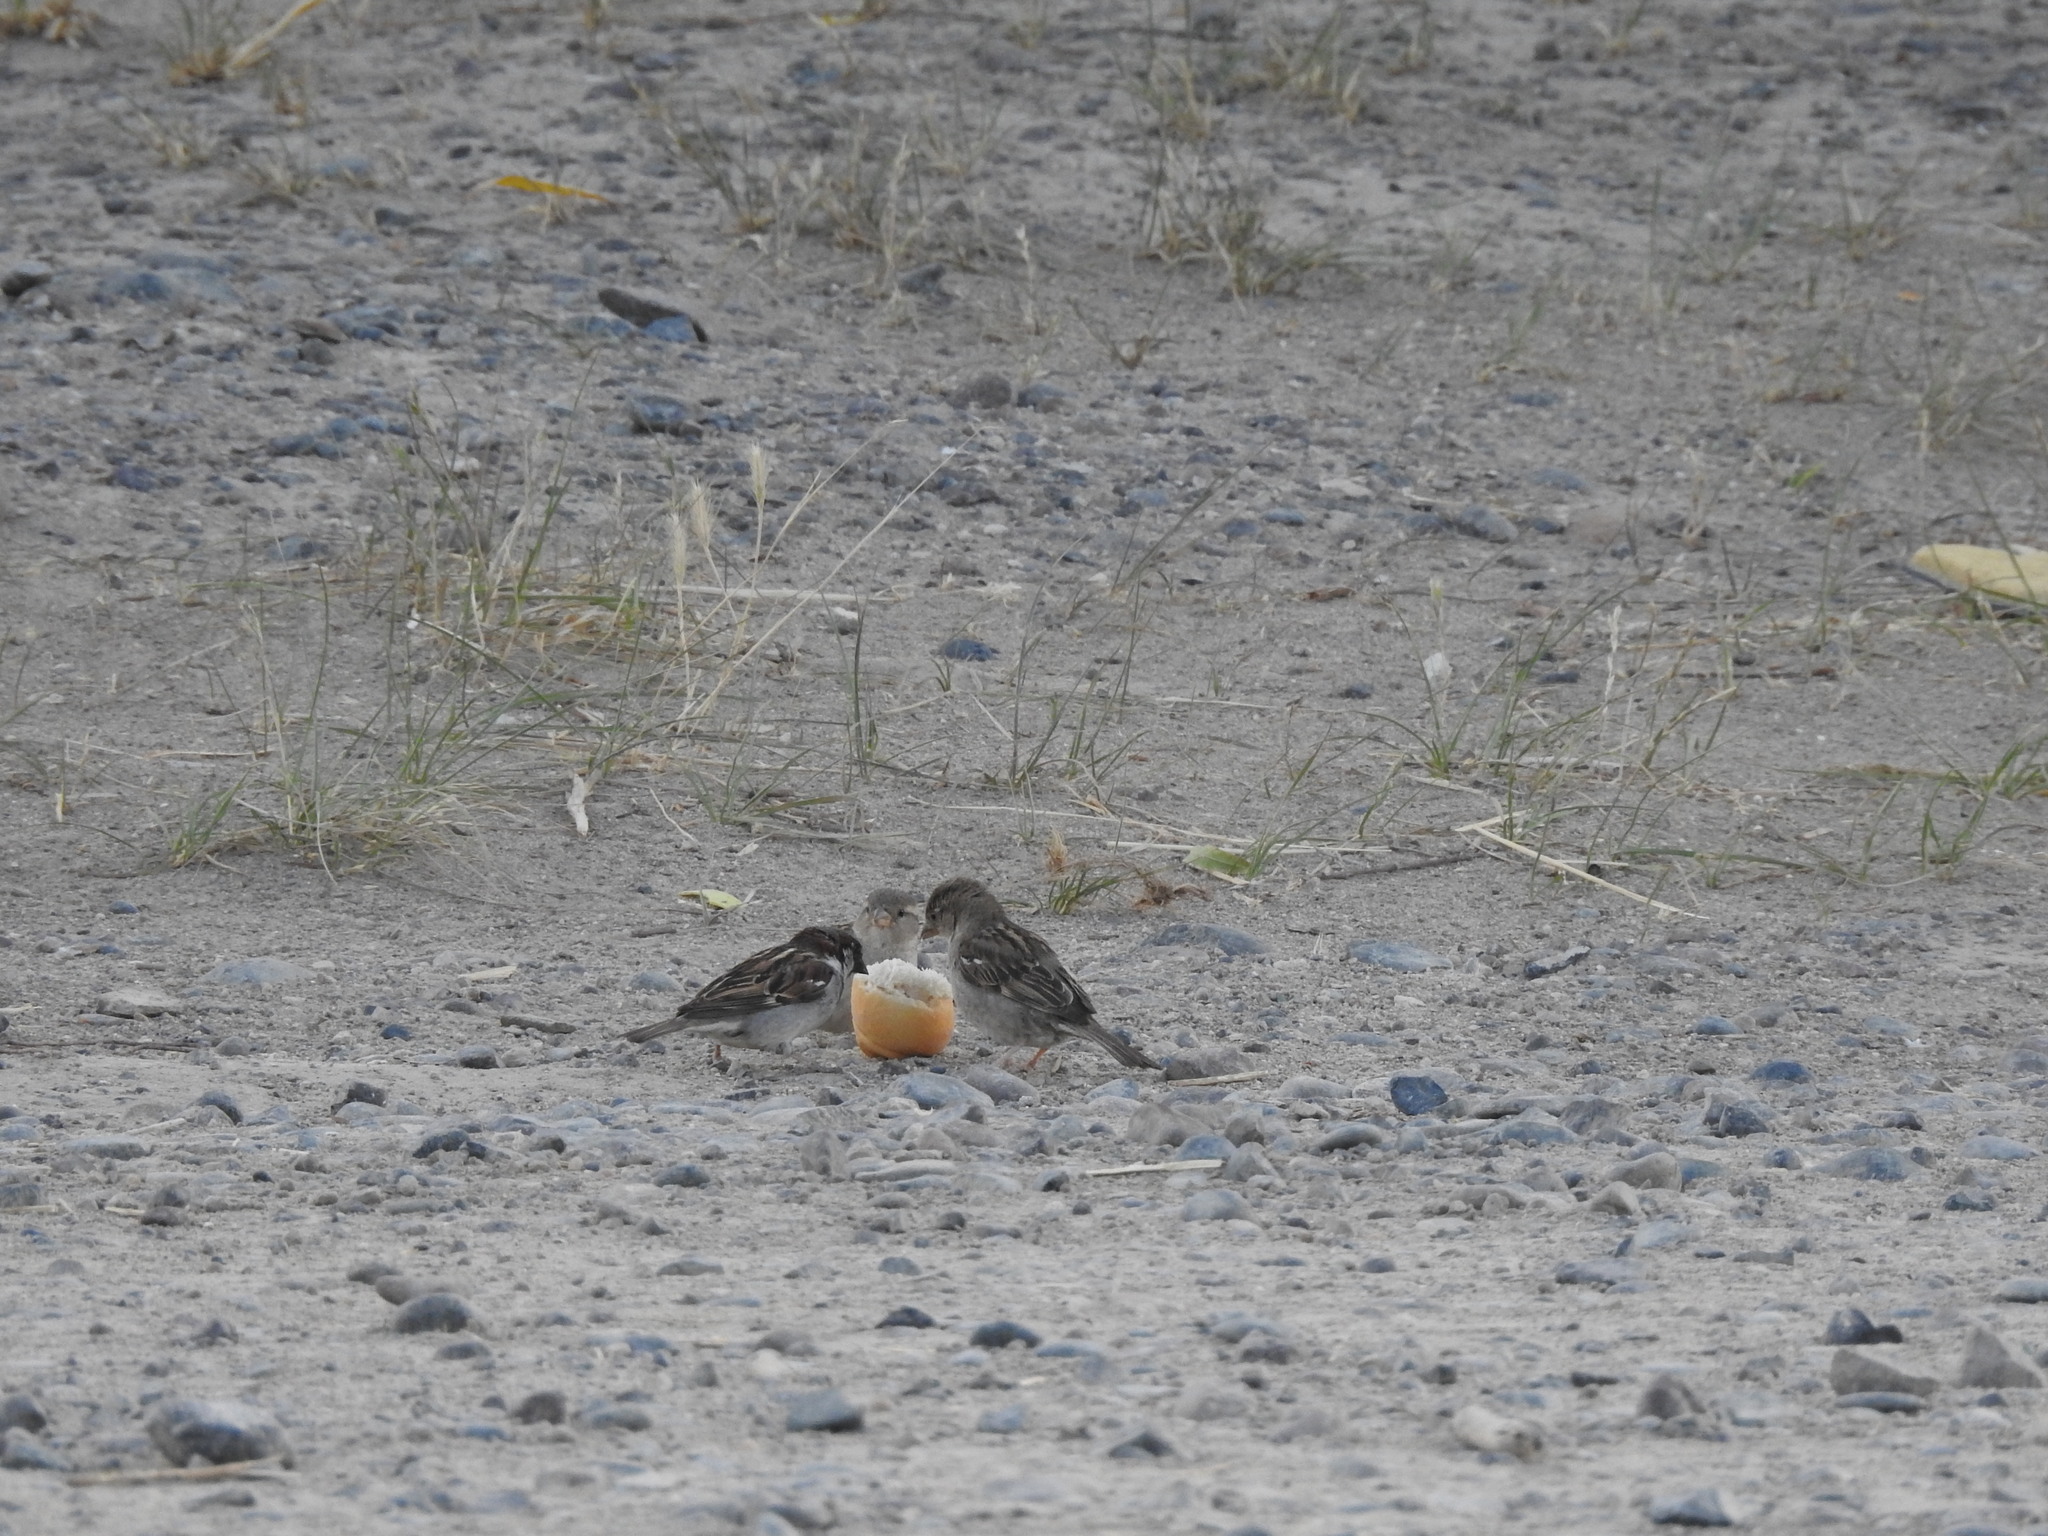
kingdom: Animalia
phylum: Chordata
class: Aves
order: Passeriformes
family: Passeridae
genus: Passer
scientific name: Passer domesticus
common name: House sparrow
